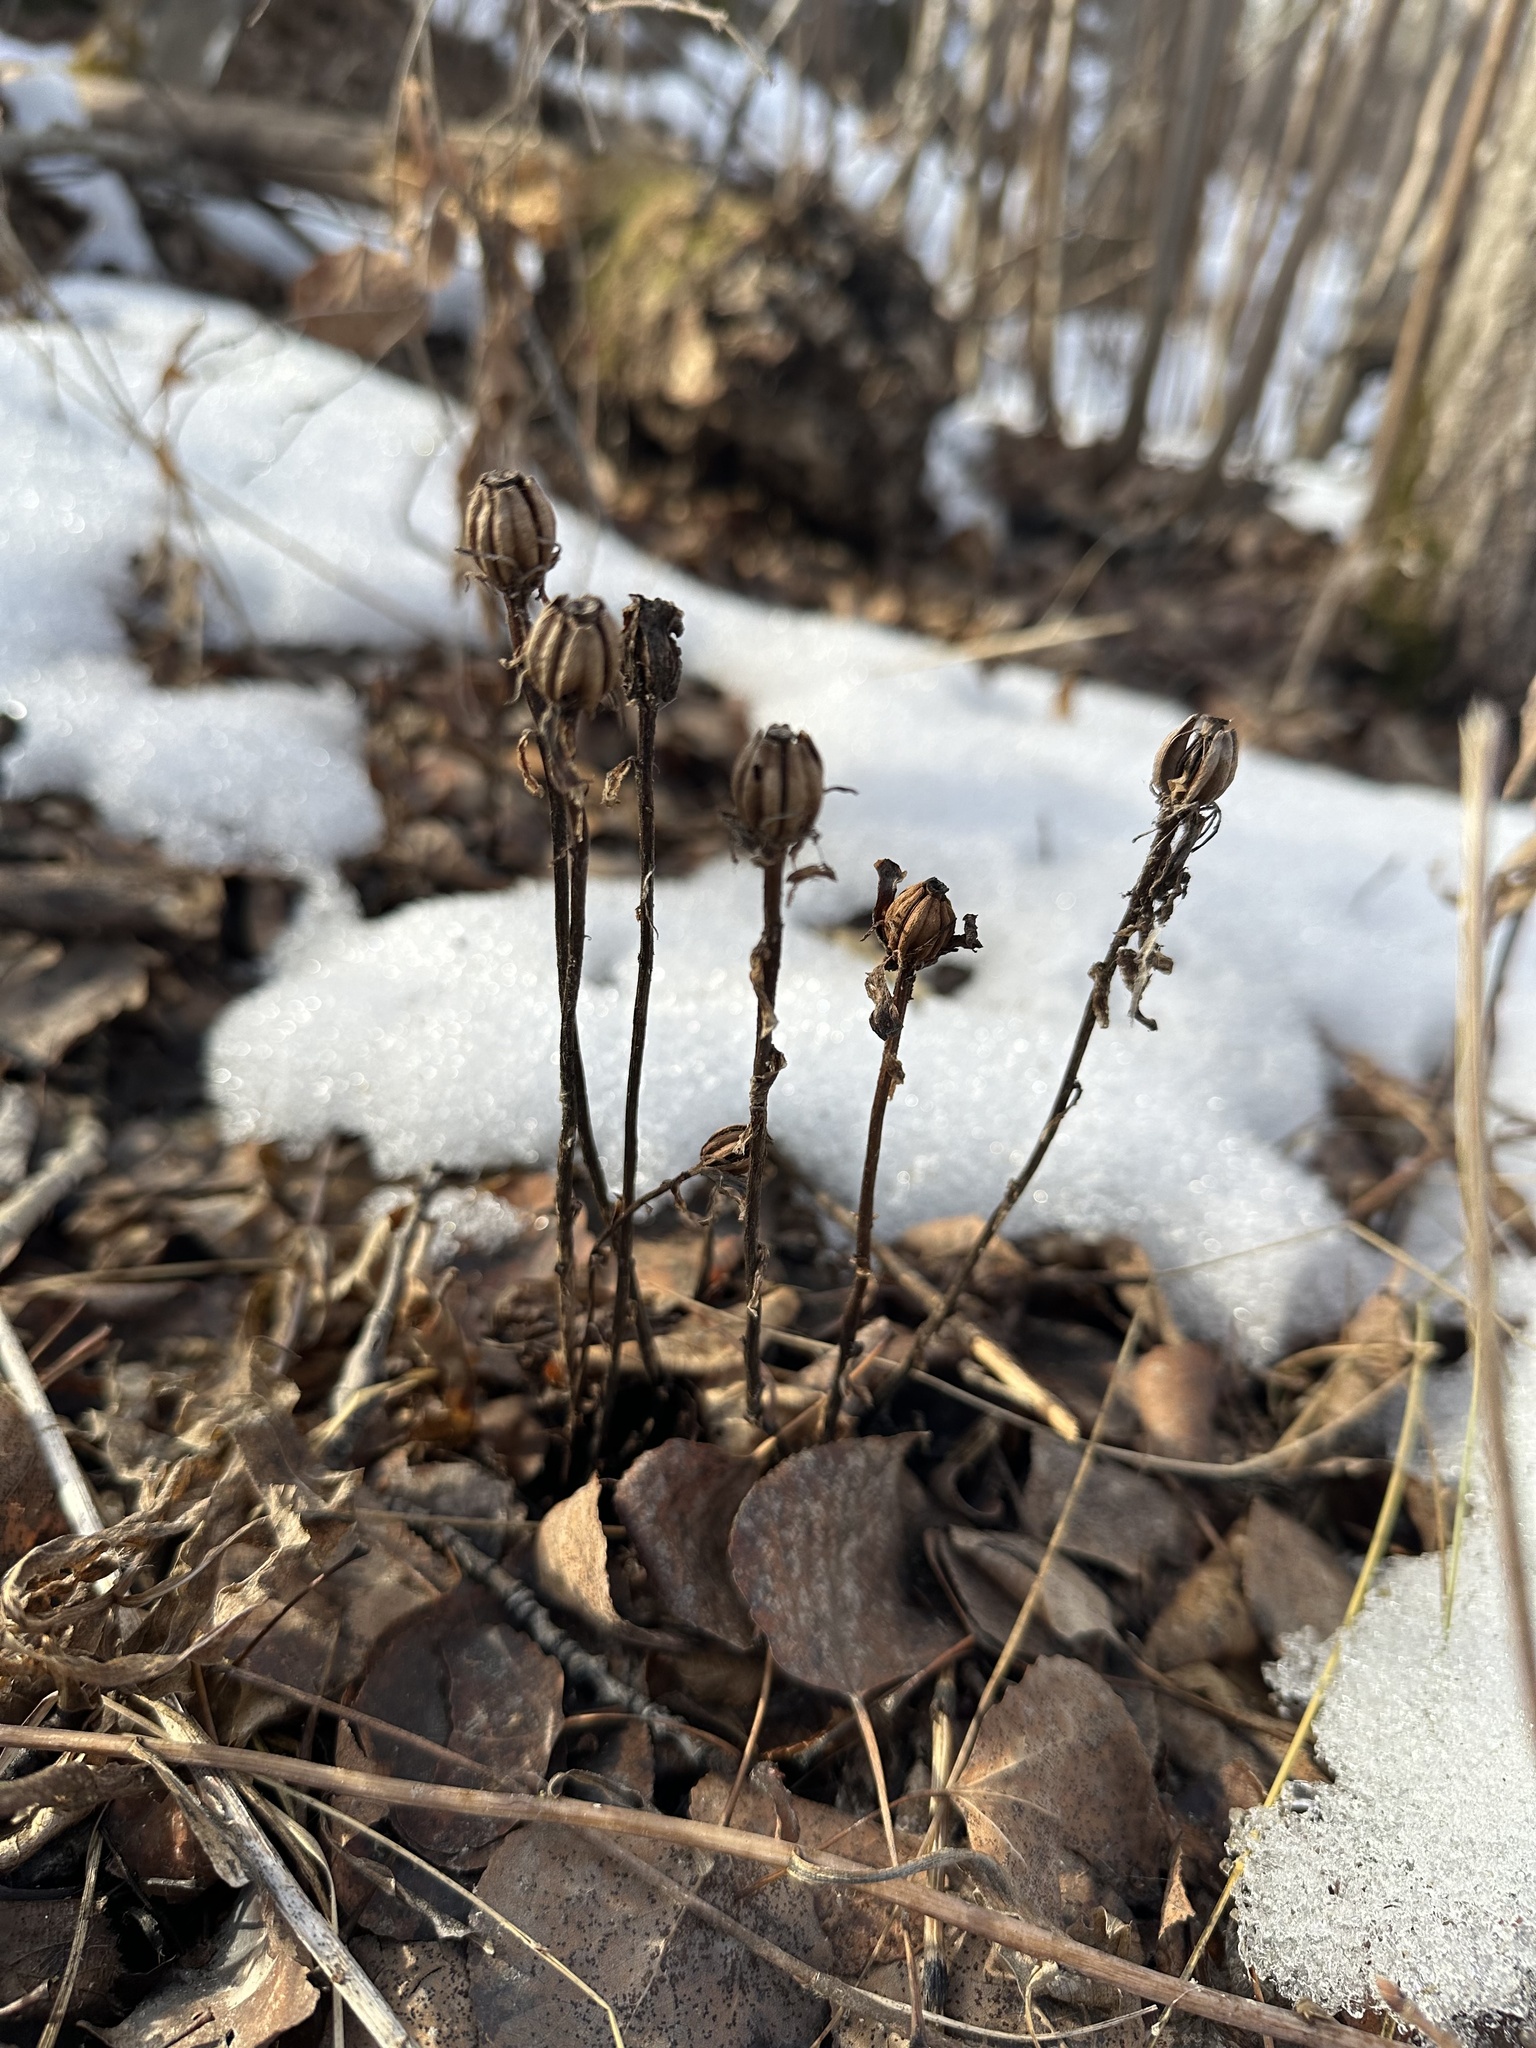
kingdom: Plantae
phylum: Tracheophyta
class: Magnoliopsida
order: Ericales
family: Ericaceae
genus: Monotropa
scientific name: Monotropa uniflora
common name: Convulsion root
